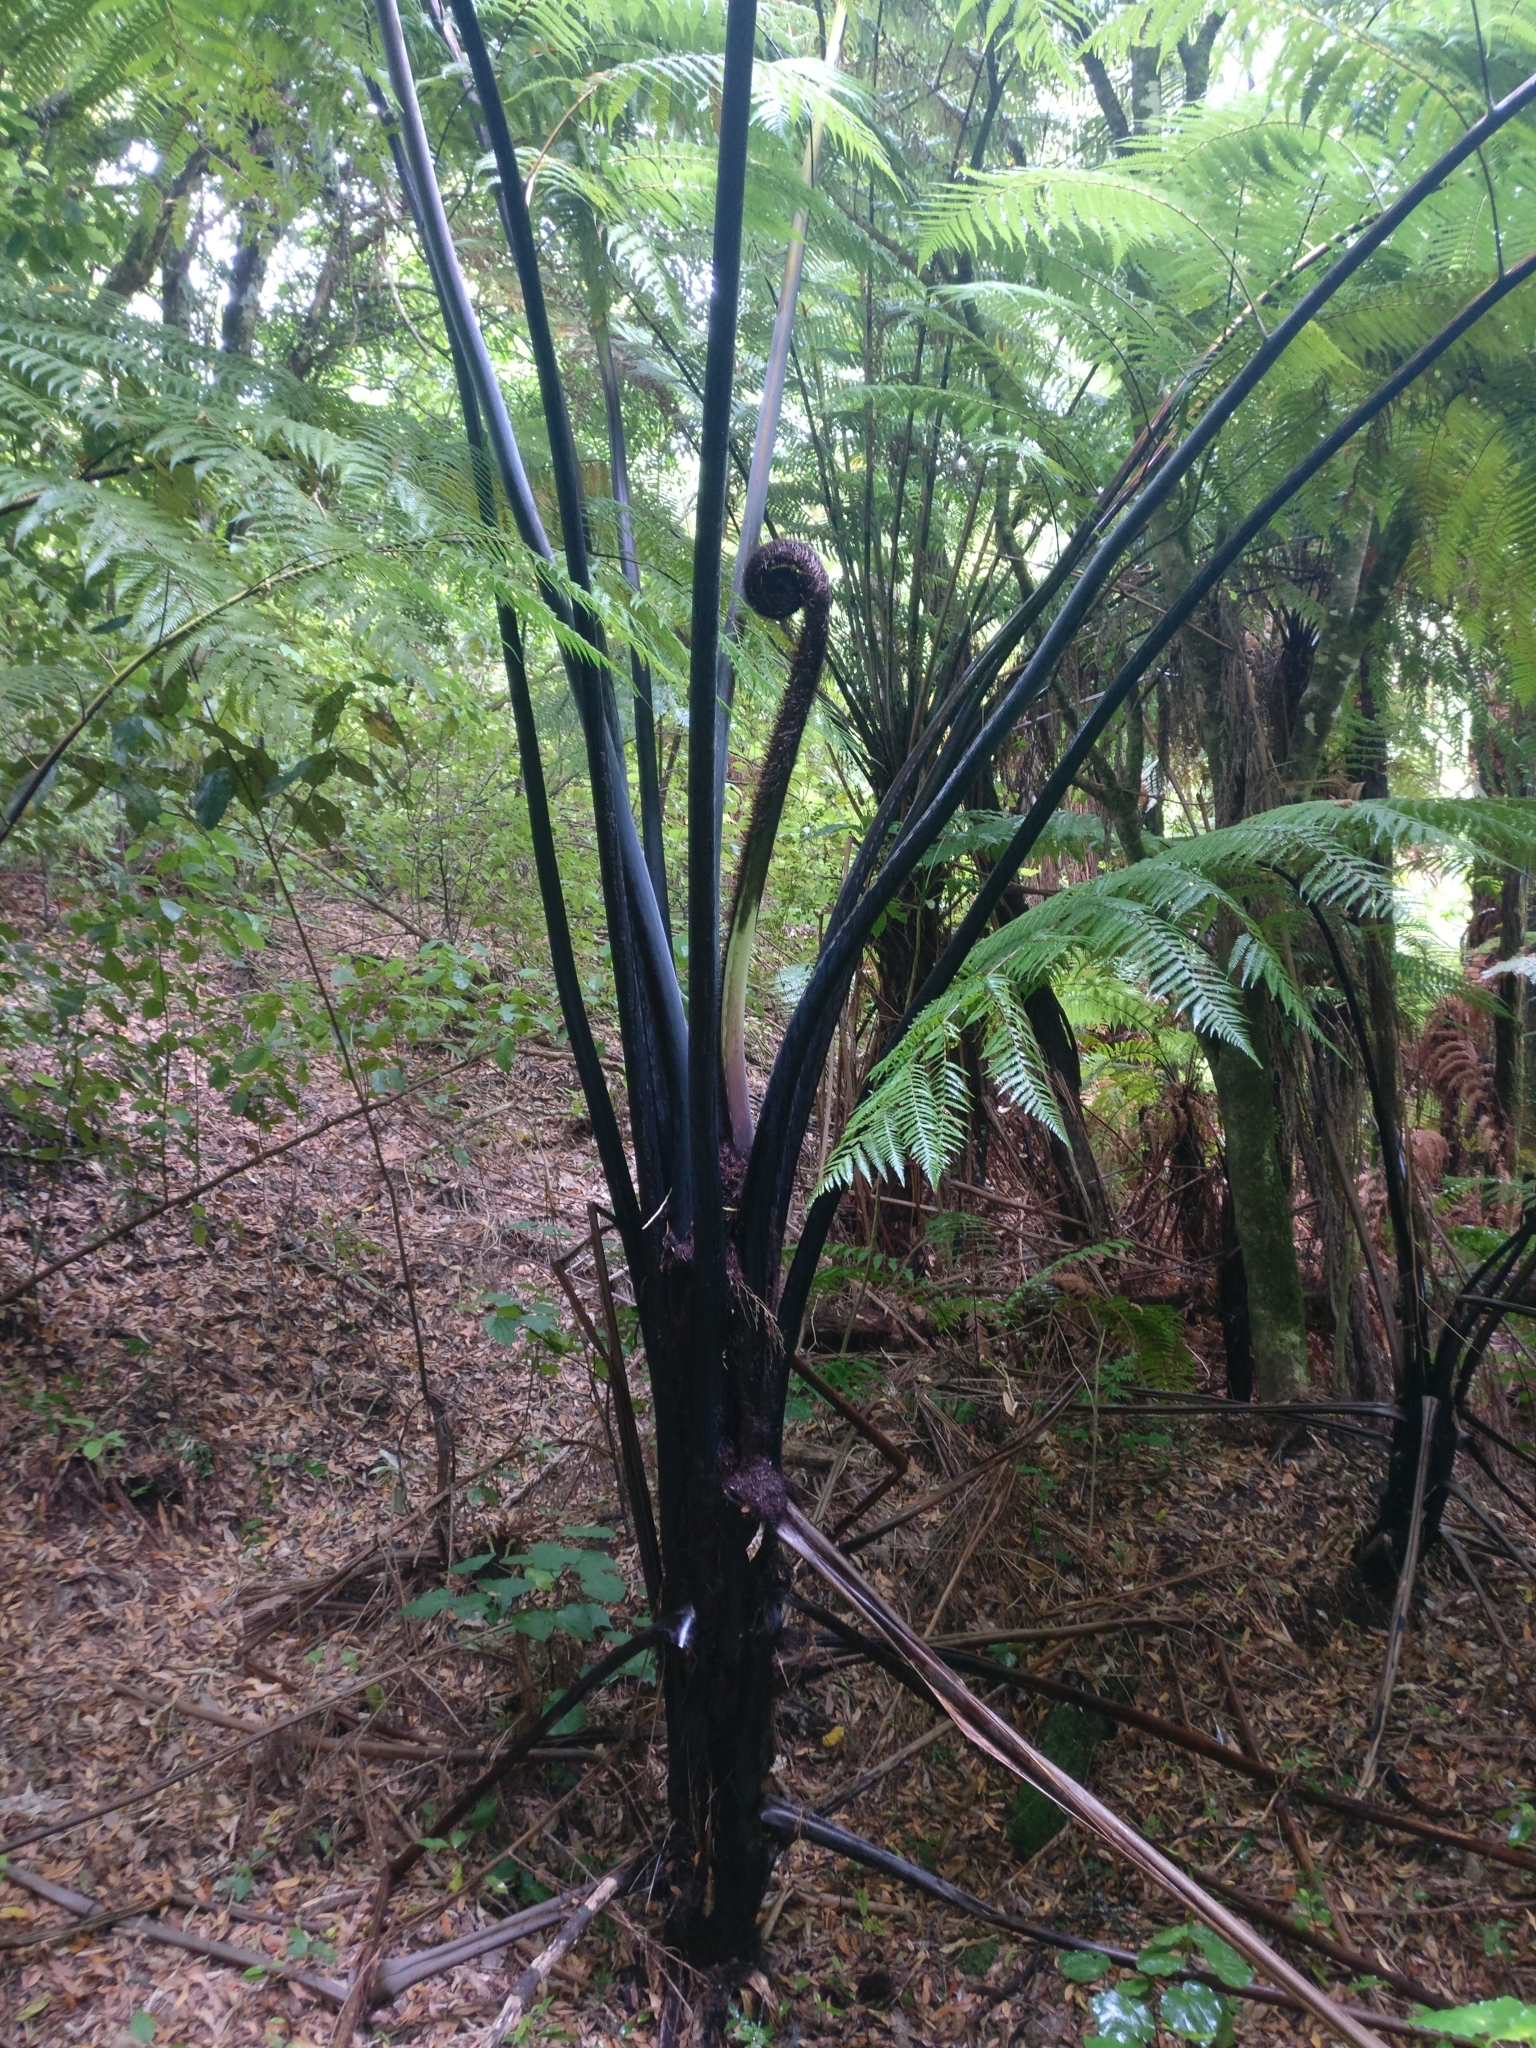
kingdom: Plantae
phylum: Tracheophyta
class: Polypodiopsida
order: Cyatheales
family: Cyatheaceae
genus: Sphaeropteris
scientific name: Sphaeropteris medullaris
